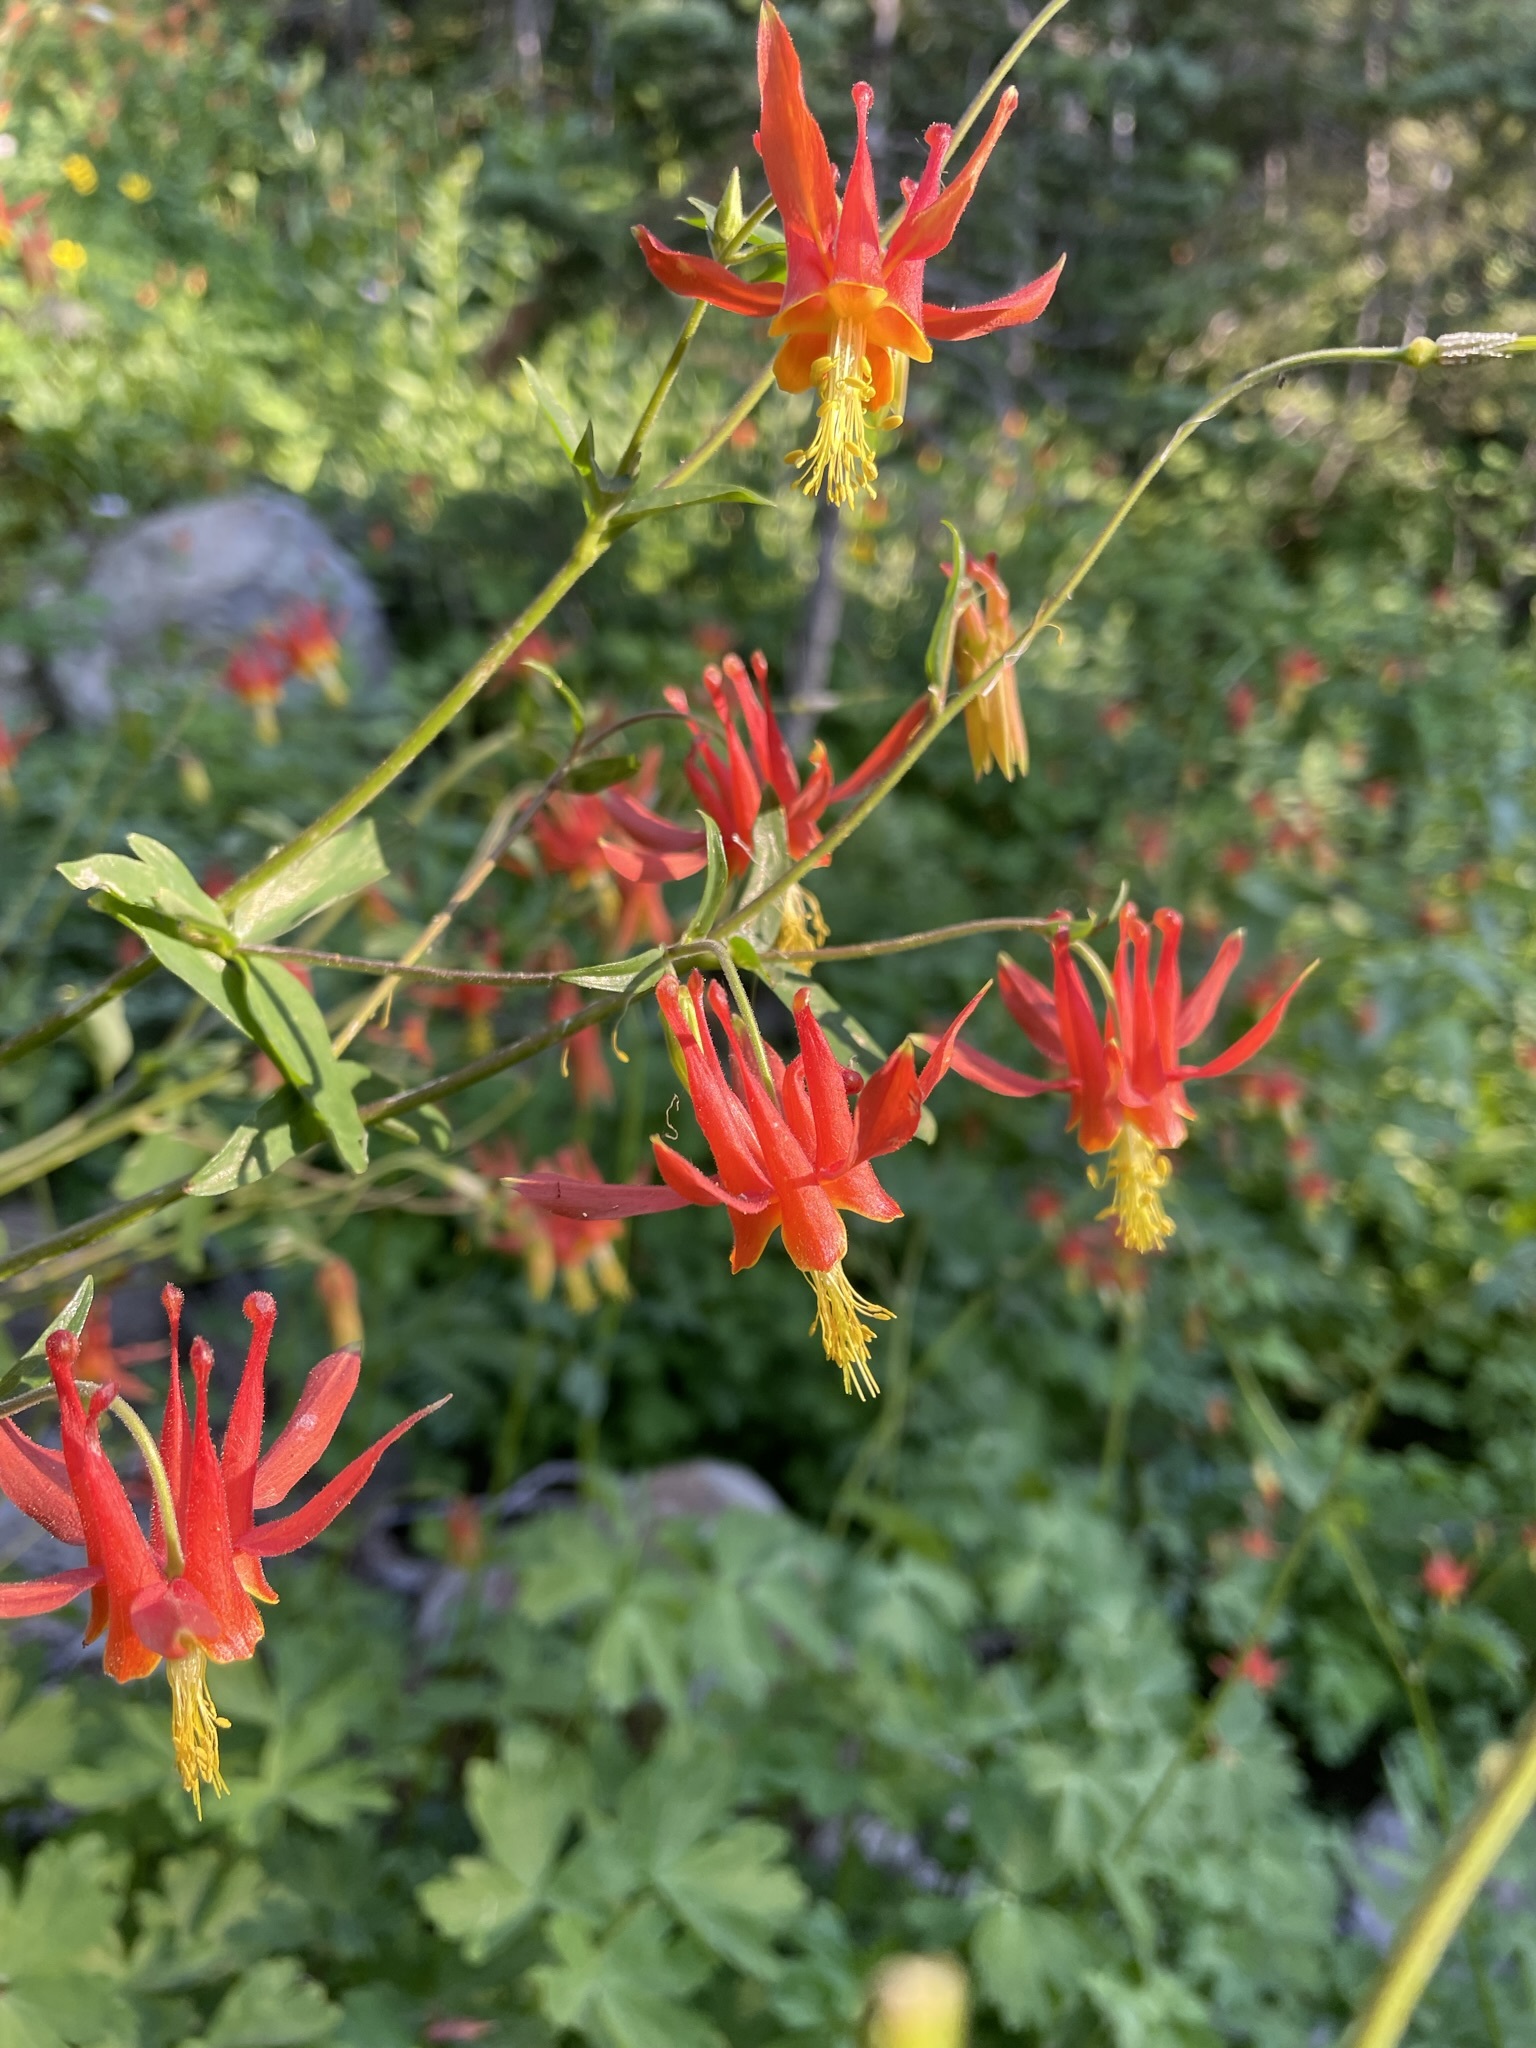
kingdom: Plantae
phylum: Tracheophyta
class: Magnoliopsida
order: Ranunculales
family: Ranunculaceae
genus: Aquilegia
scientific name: Aquilegia formosa
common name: Sitka columbine
